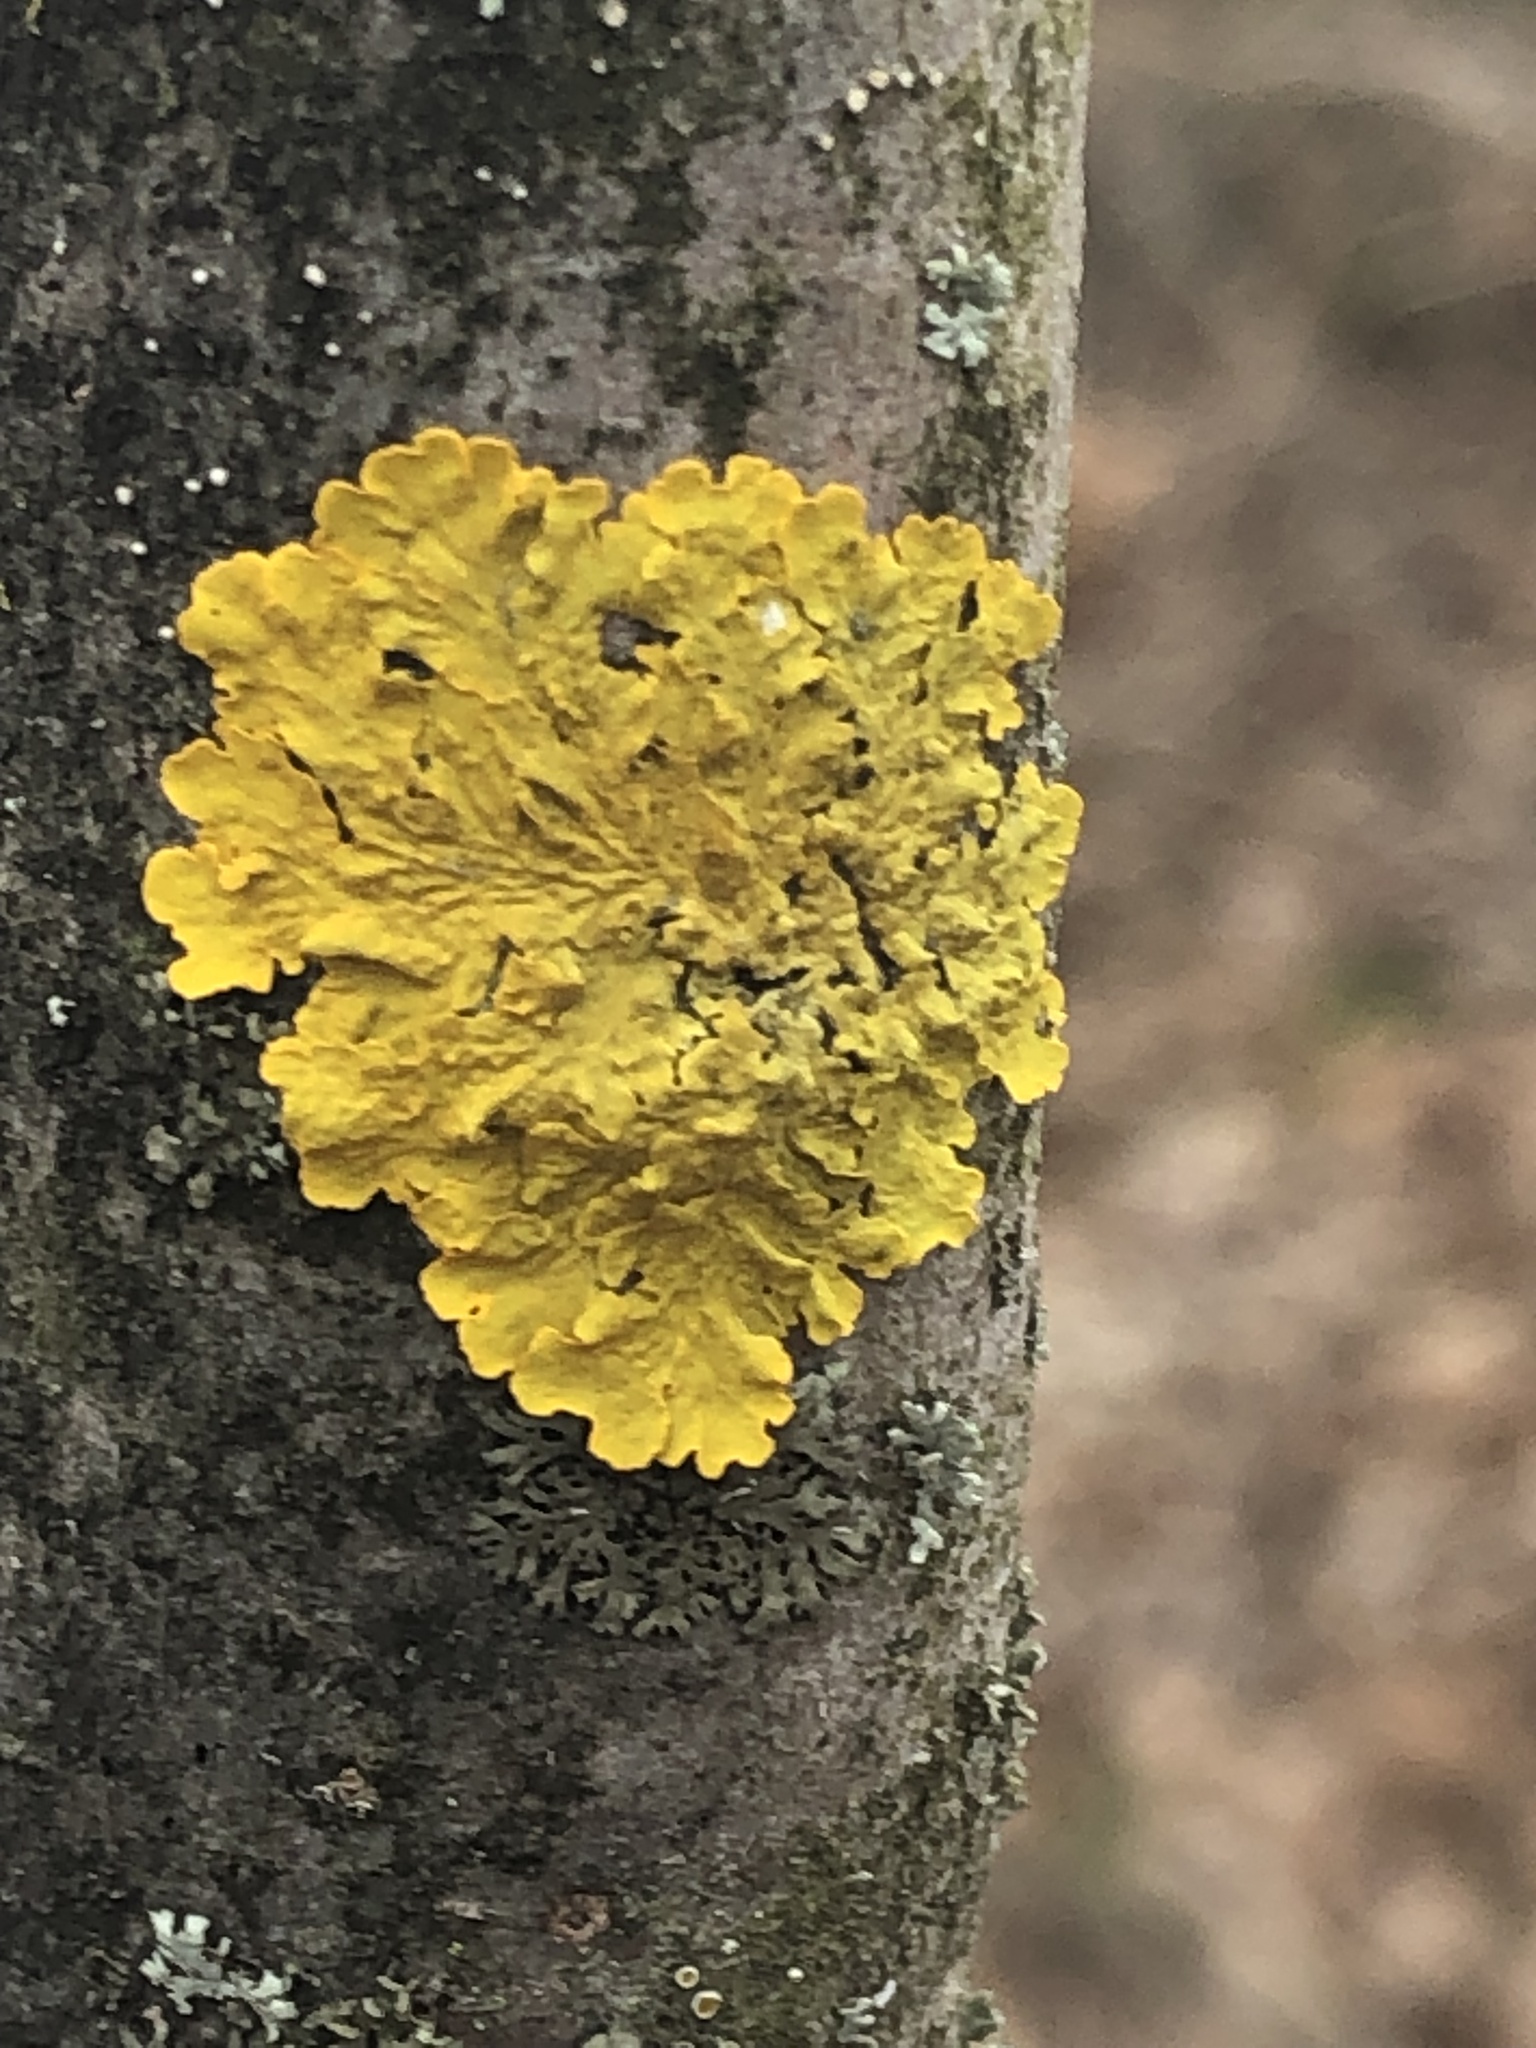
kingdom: Fungi
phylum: Ascomycota
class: Lecanoromycetes
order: Teloschistales
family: Teloschistaceae
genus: Xanthoria
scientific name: Xanthoria parietina
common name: Common orange lichen
